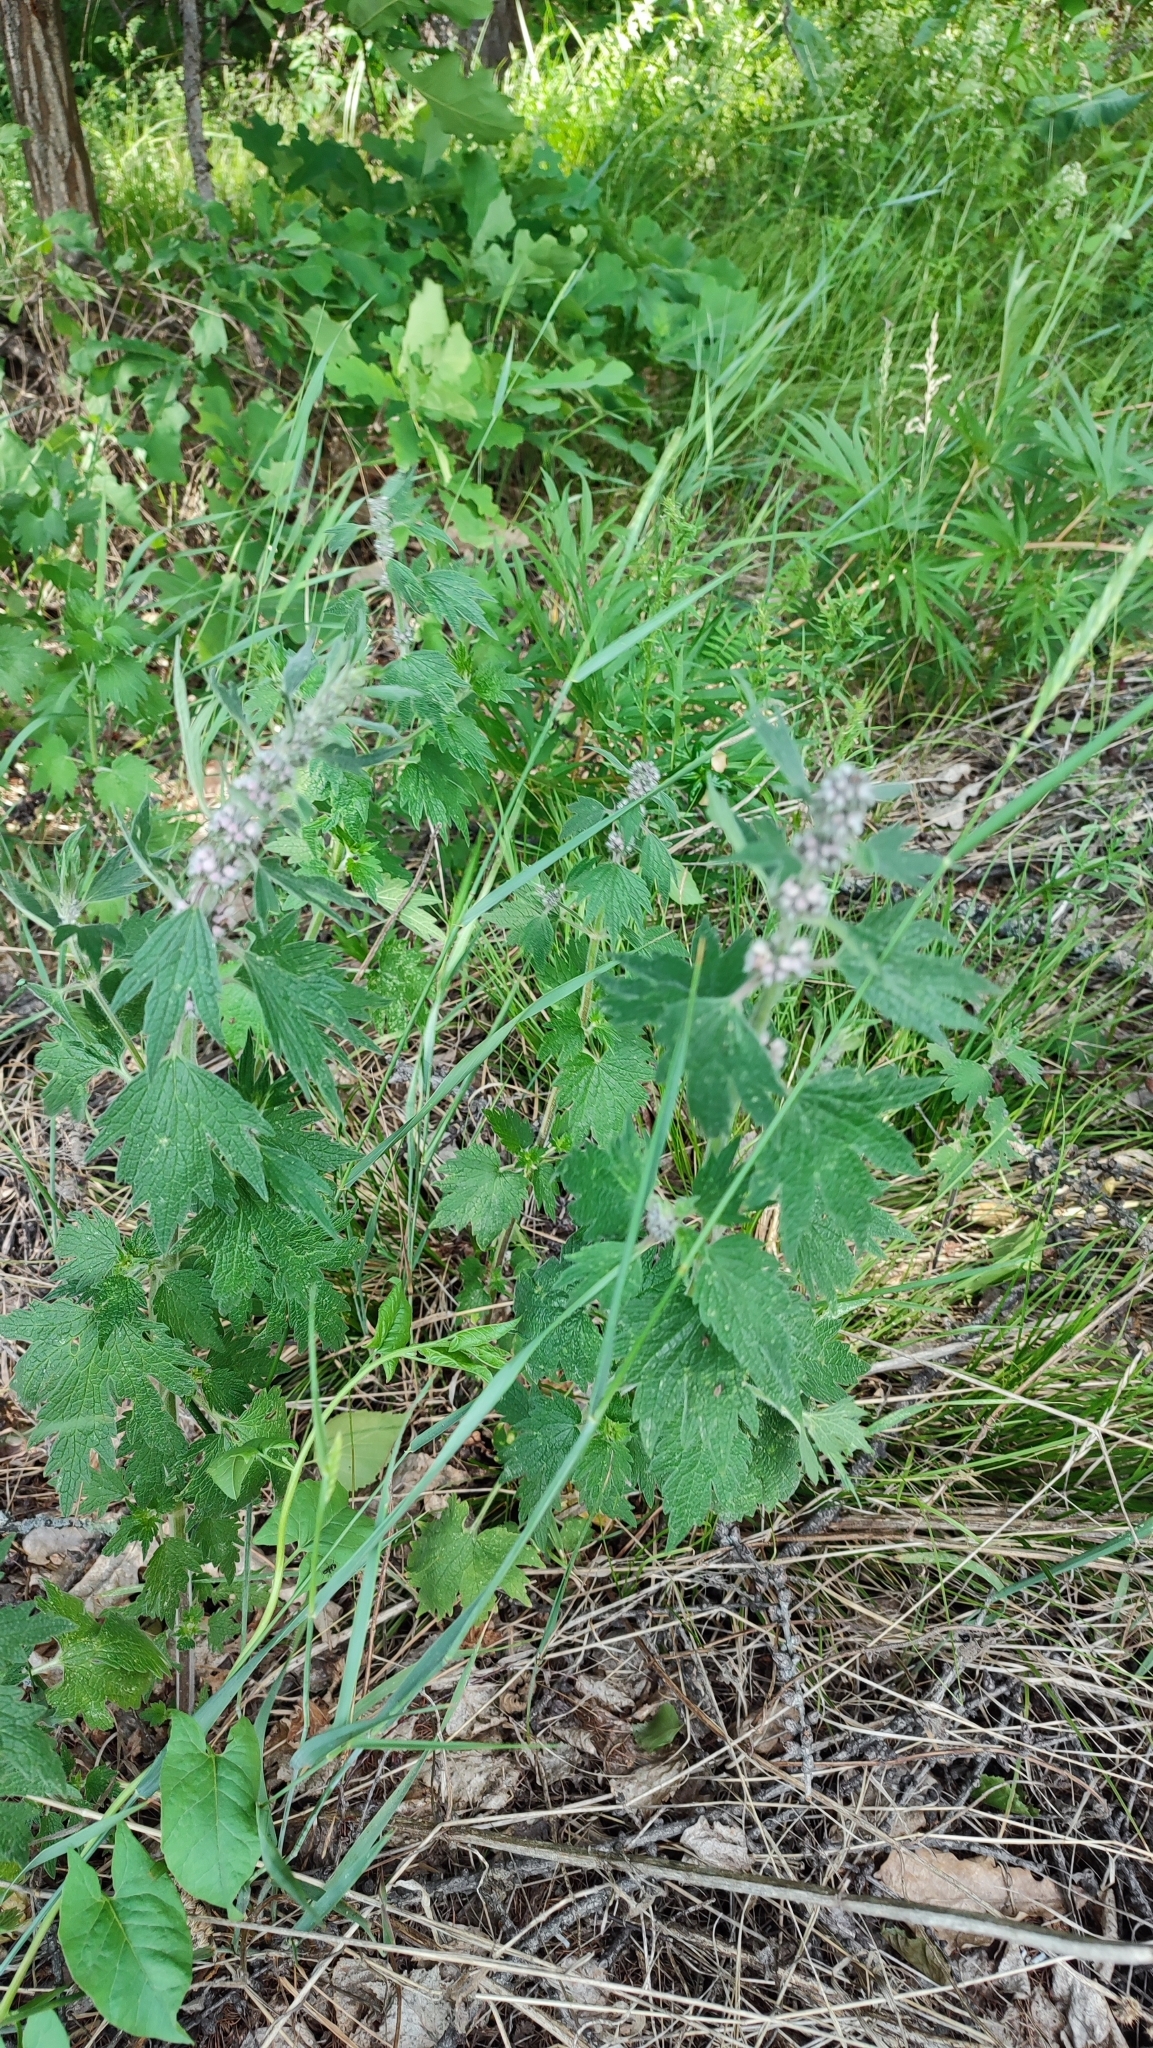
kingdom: Plantae
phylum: Tracheophyta
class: Magnoliopsida
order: Lamiales
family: Lamiaceae
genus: Leonurus
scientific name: Leonurus quinquelobatus
